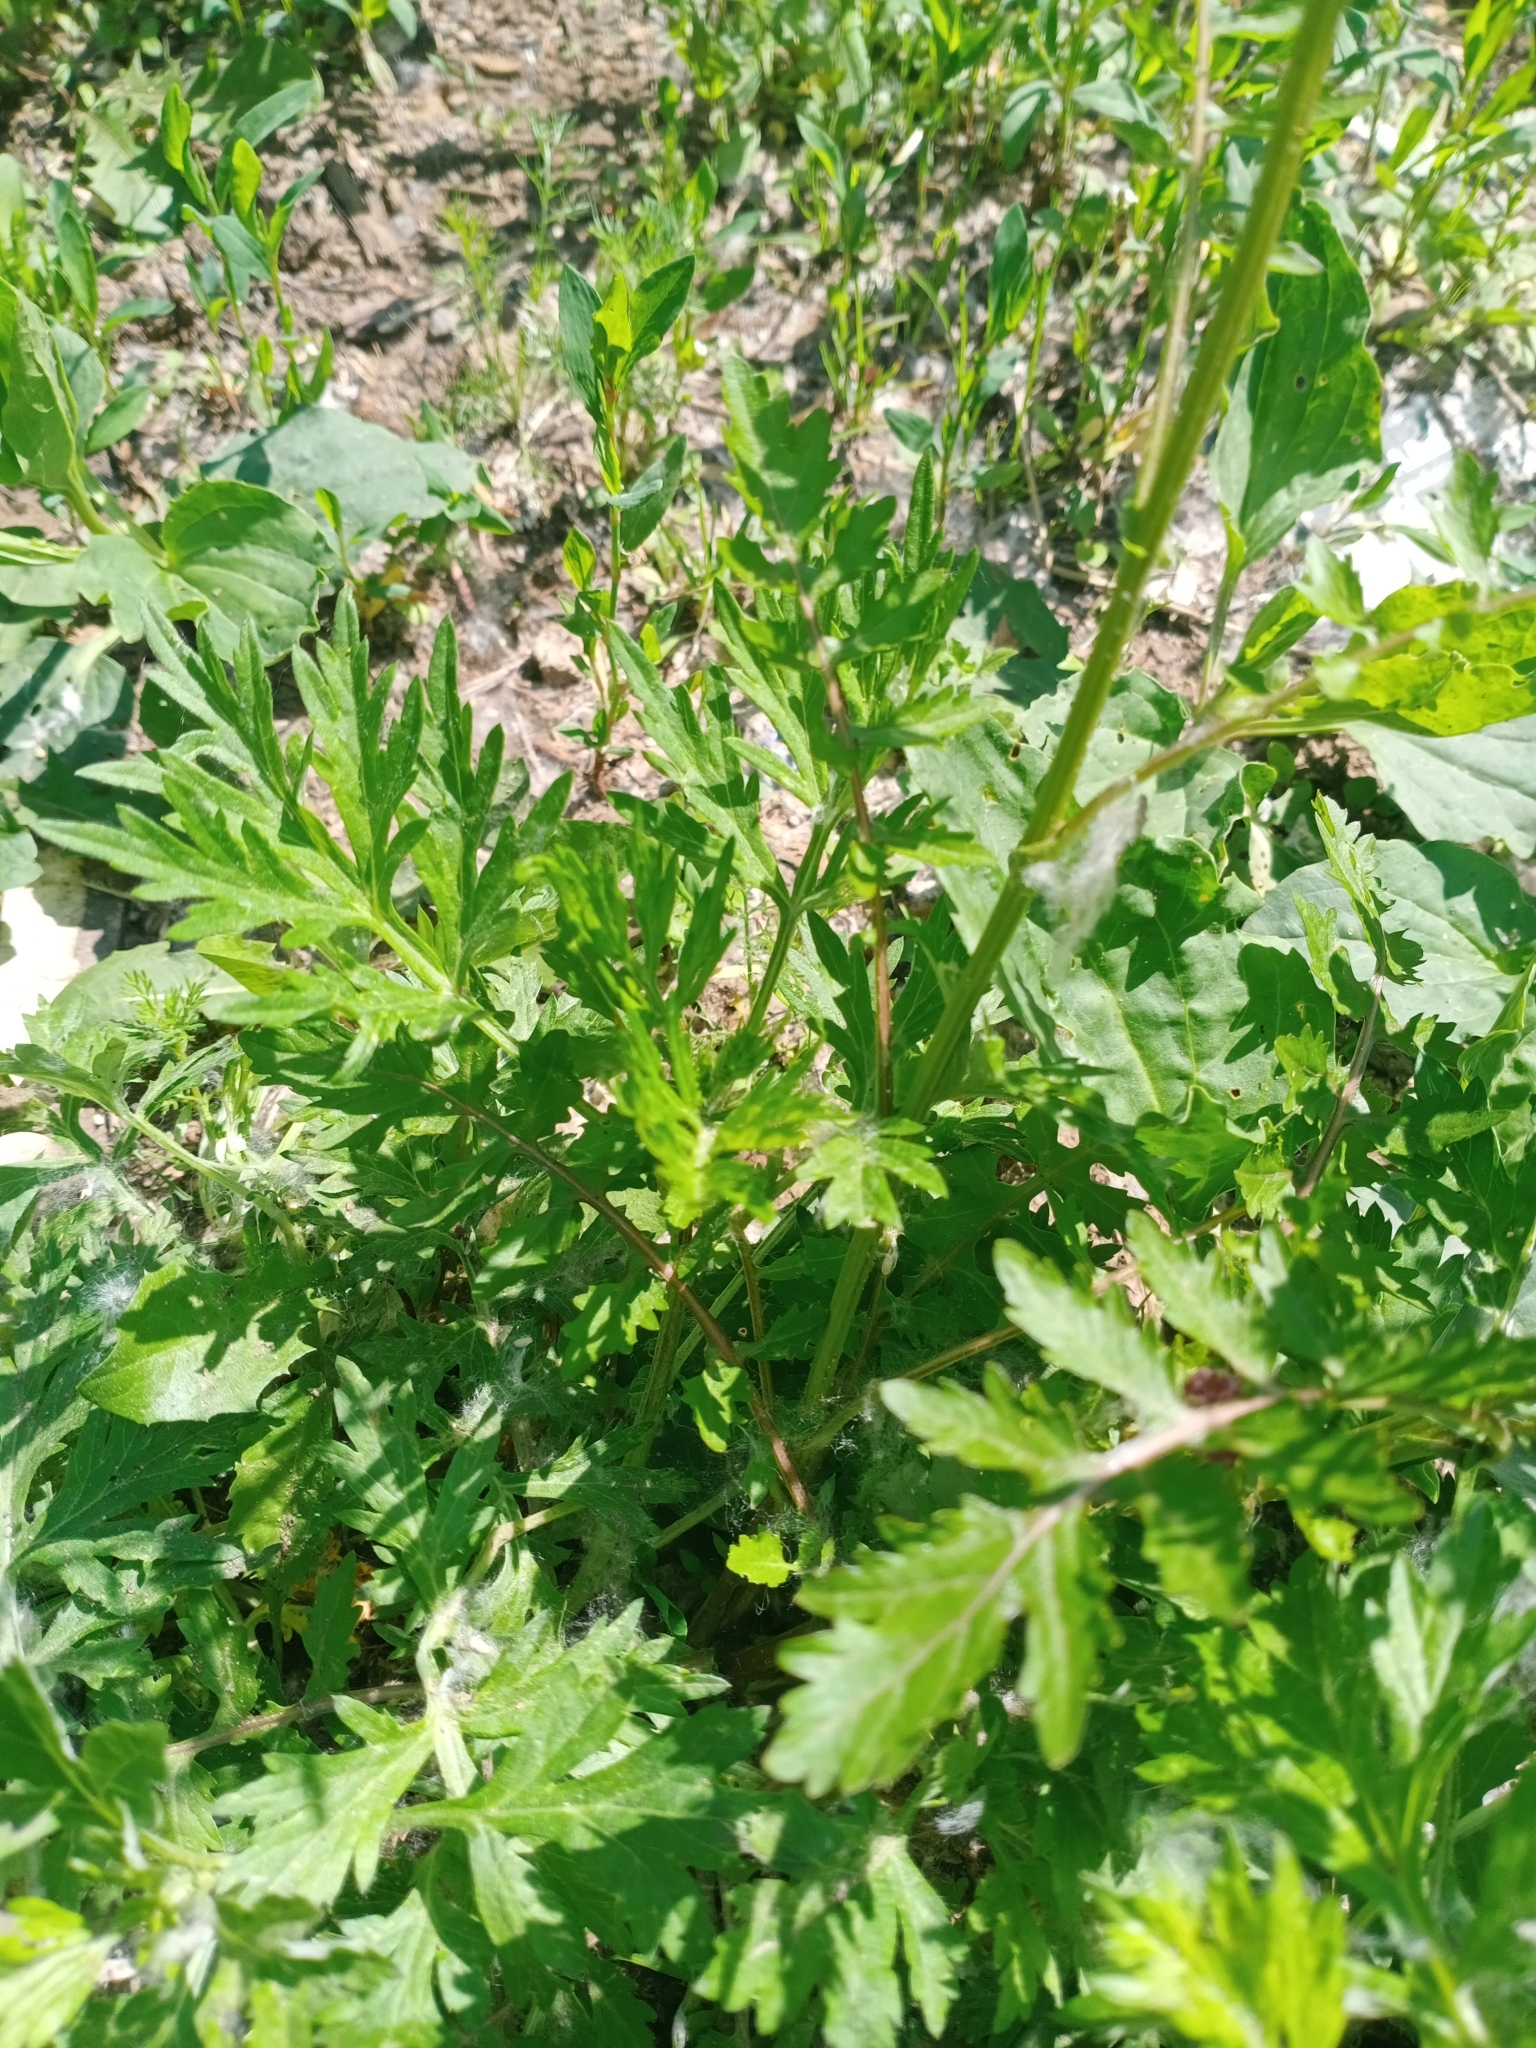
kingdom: Plantae
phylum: Tracheophyta
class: Magnoliopsida
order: Brassicales
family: Brassicaceae
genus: Rorippa
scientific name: Rorippa palustris
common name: Marsh yellow-cress
